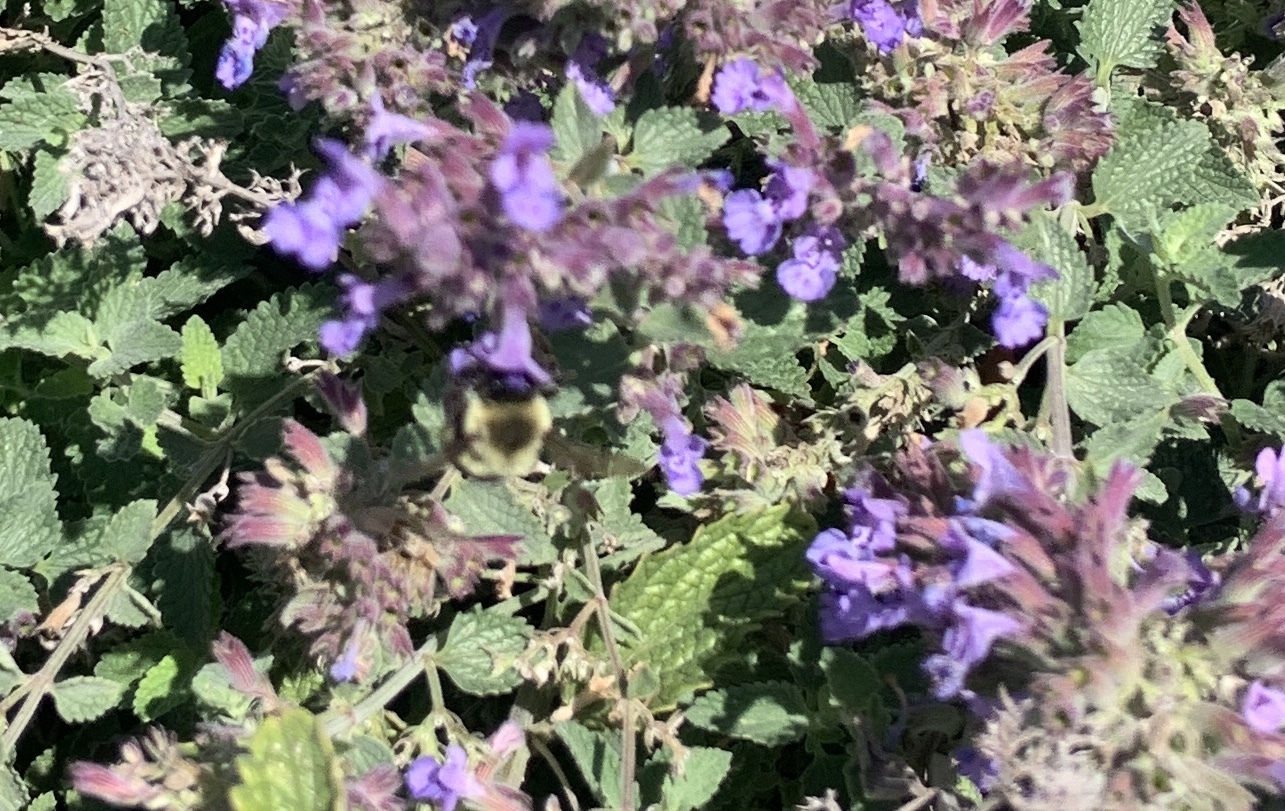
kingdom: Animalia
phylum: Arthropoda
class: Insecta
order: Hymenoptera
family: Apidae
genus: Bombus
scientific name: Bombus impatiens
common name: Common eastern bumble bee
